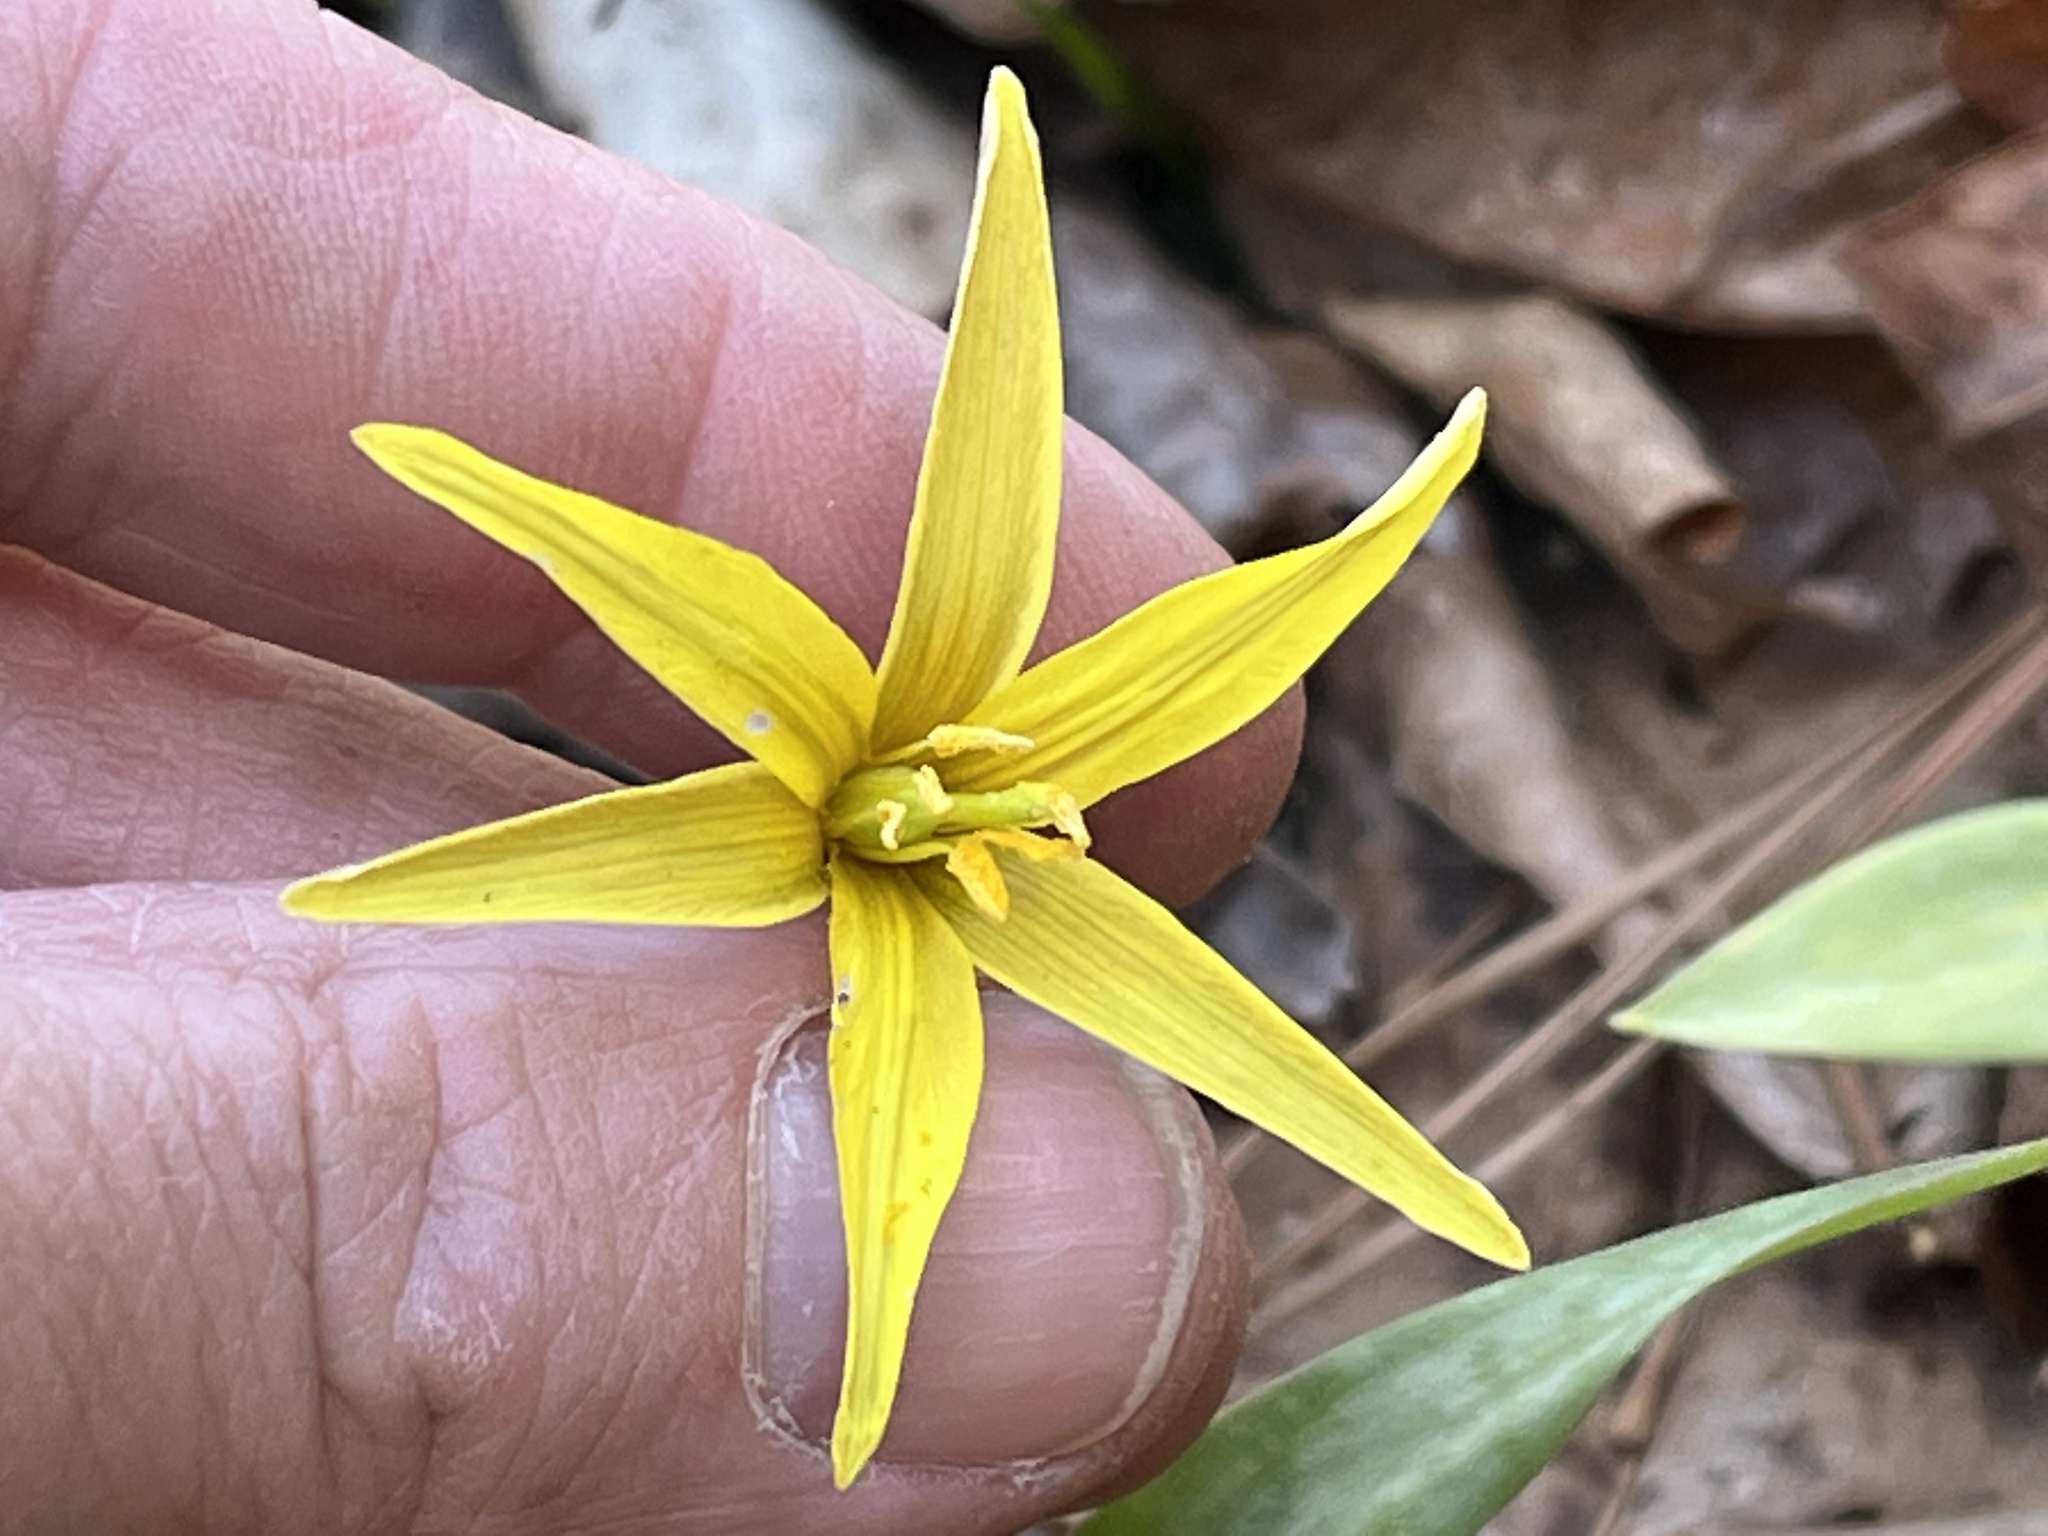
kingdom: Plantae
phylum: Tracheophyta
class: Liliopsida
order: Liliales
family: Liliaceae
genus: Erythronium
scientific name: Erythronium rostratum
